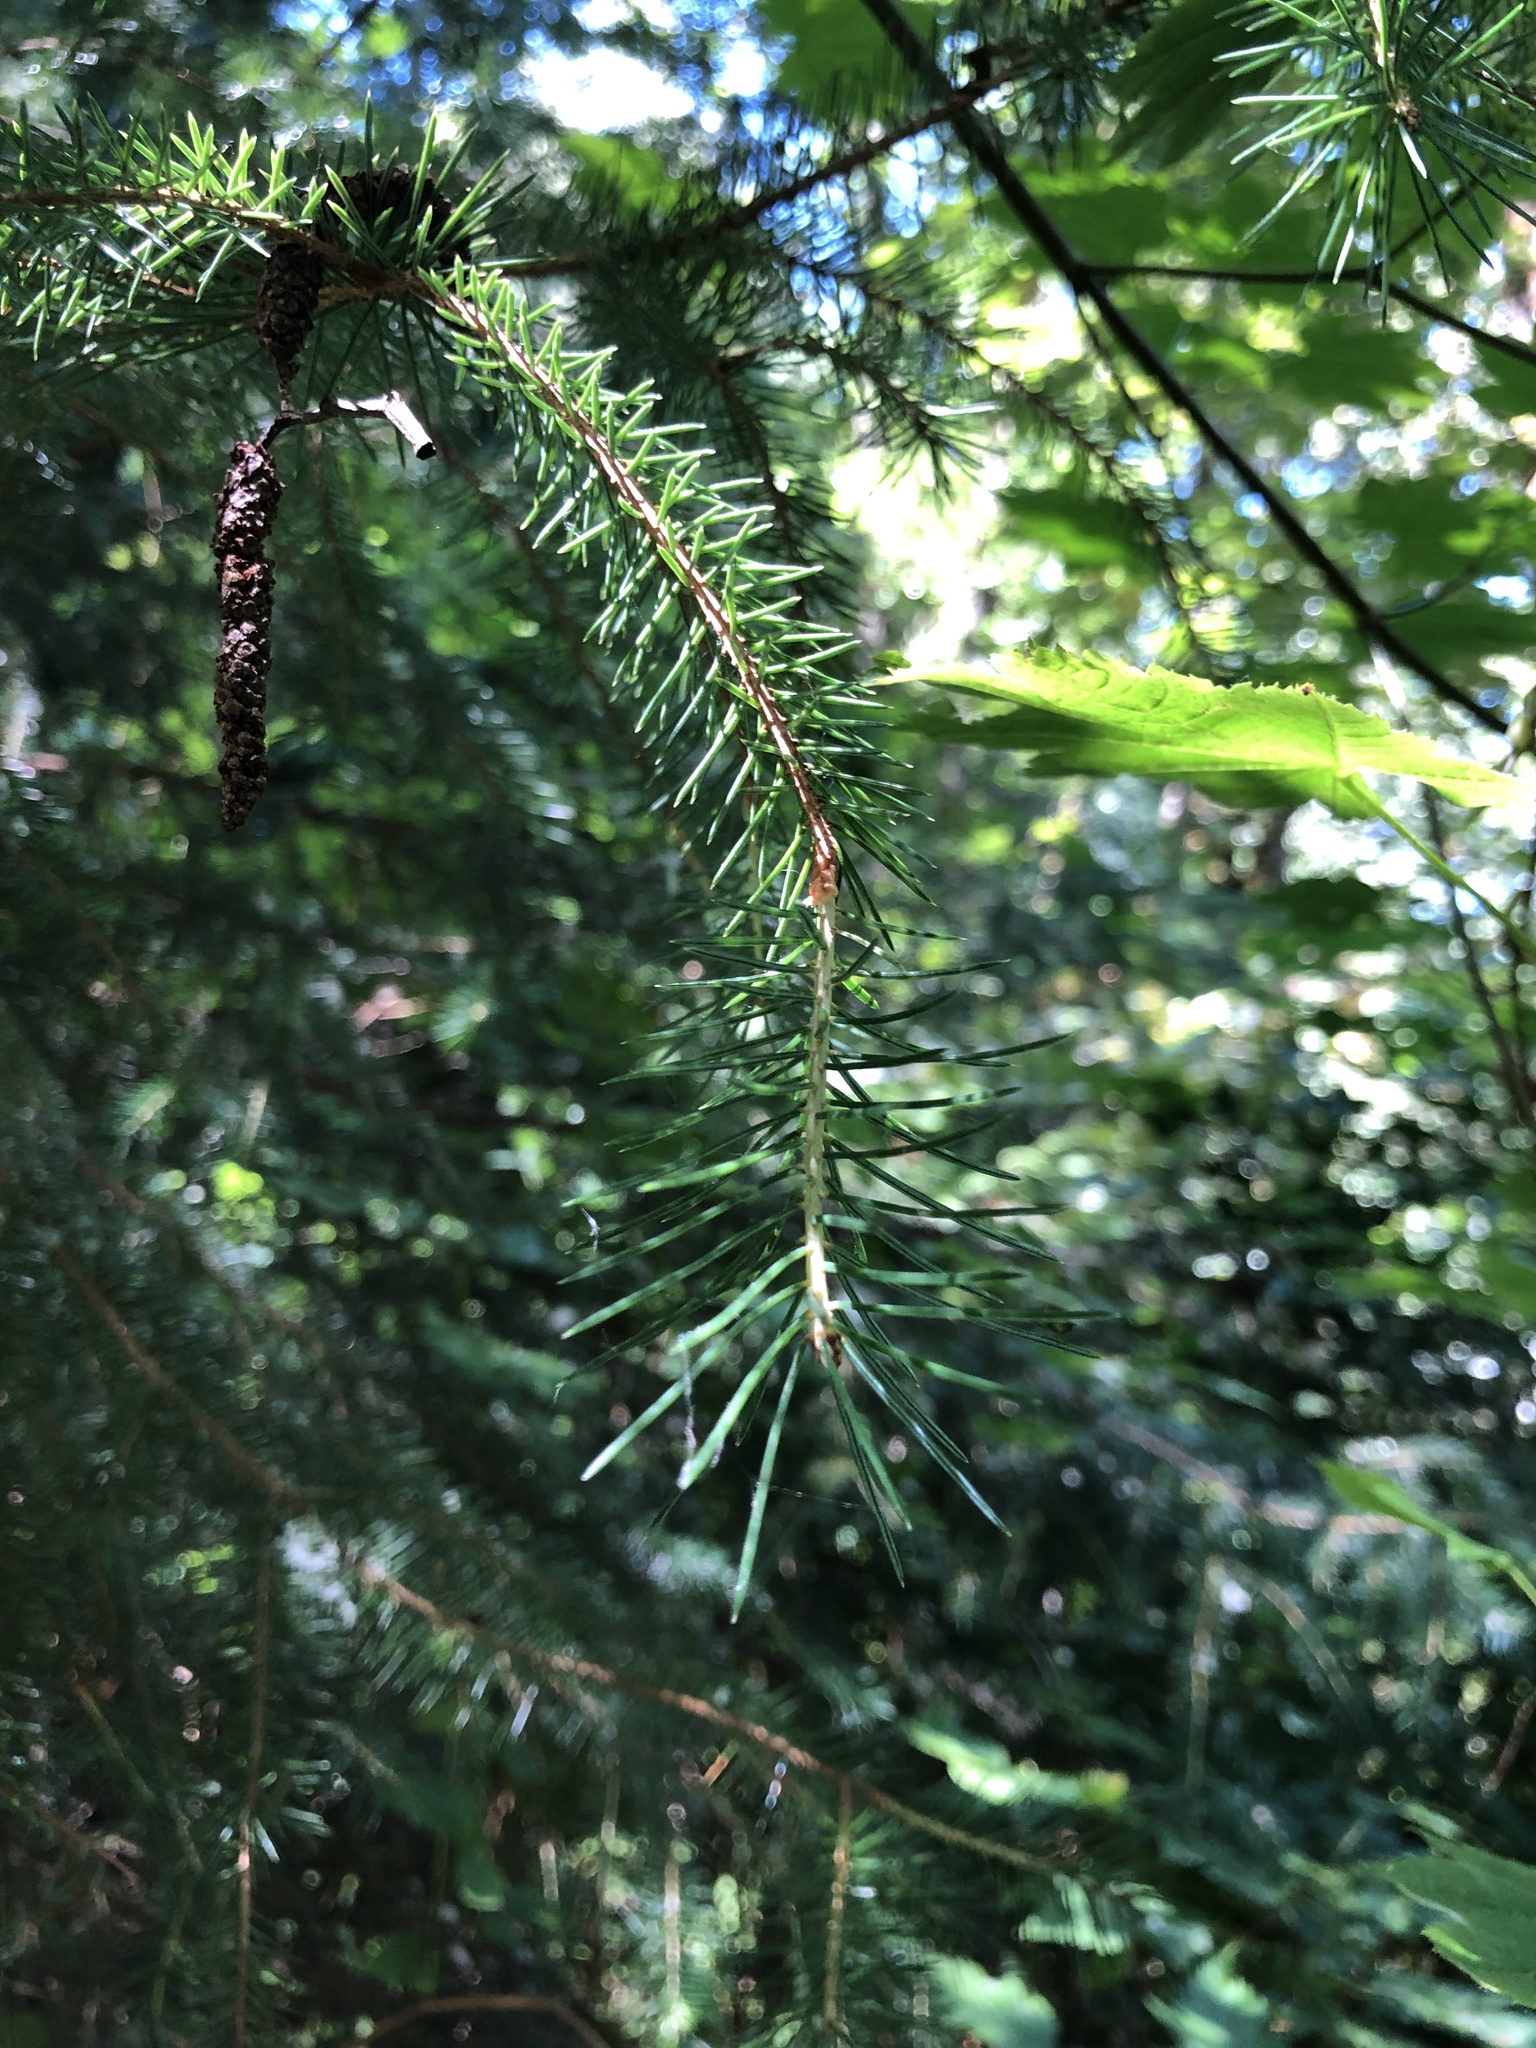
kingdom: Plantae
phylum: Tracheophyta
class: Pinopsida
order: Pinales
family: Pinaceae
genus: Picea
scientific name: Picea sitchensis
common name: Sitka spruce
